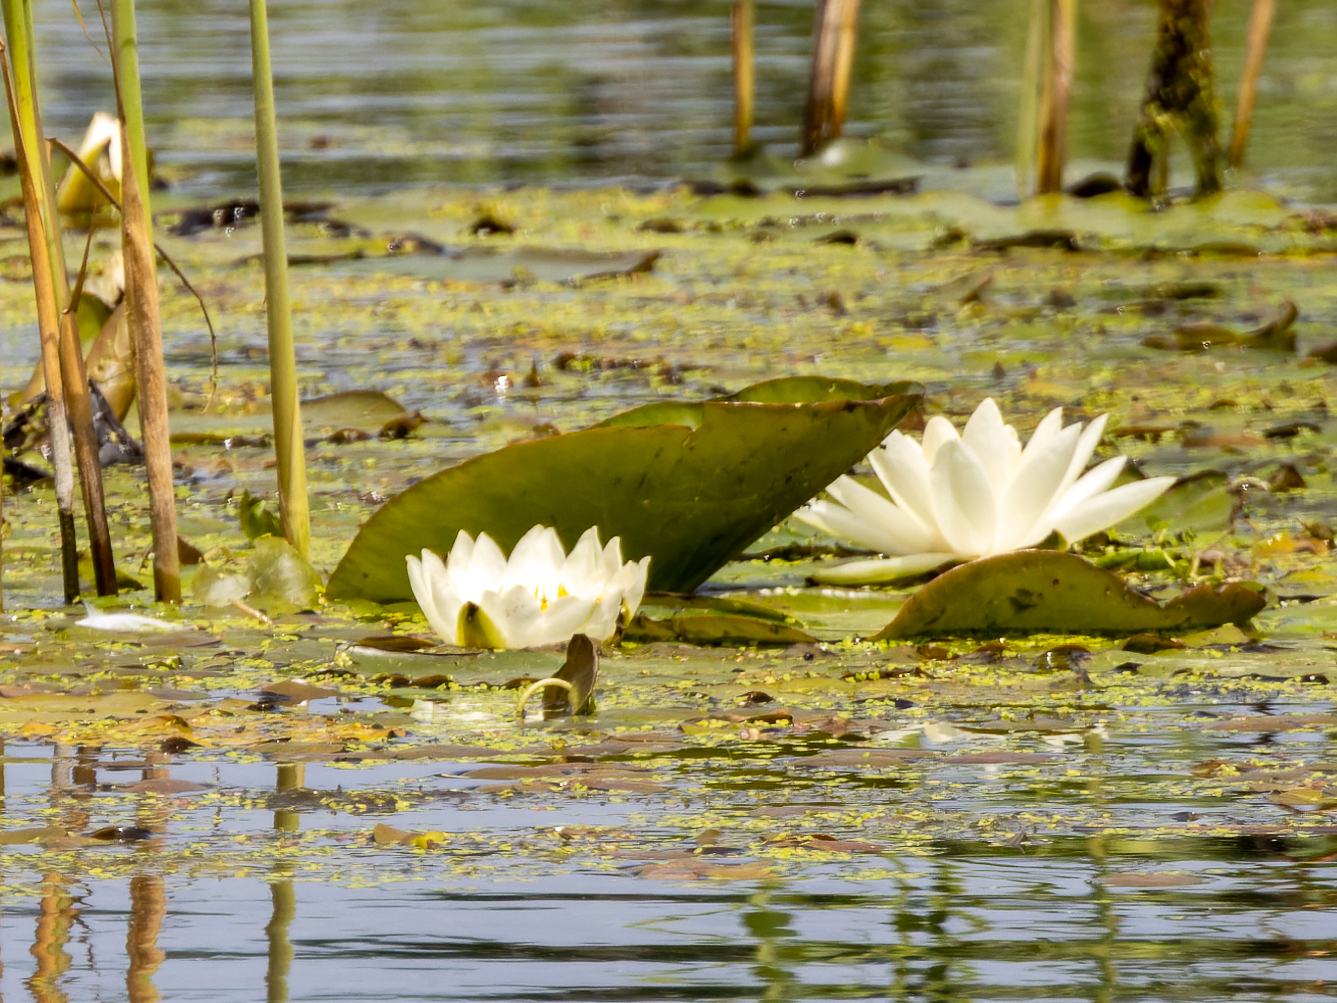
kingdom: Plantae
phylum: Tracheophyta
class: Magnoliopsida
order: Nymphaeales
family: Nymphaeaceae
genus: Nymphaea
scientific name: Nymphaea alba
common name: White water-lily
